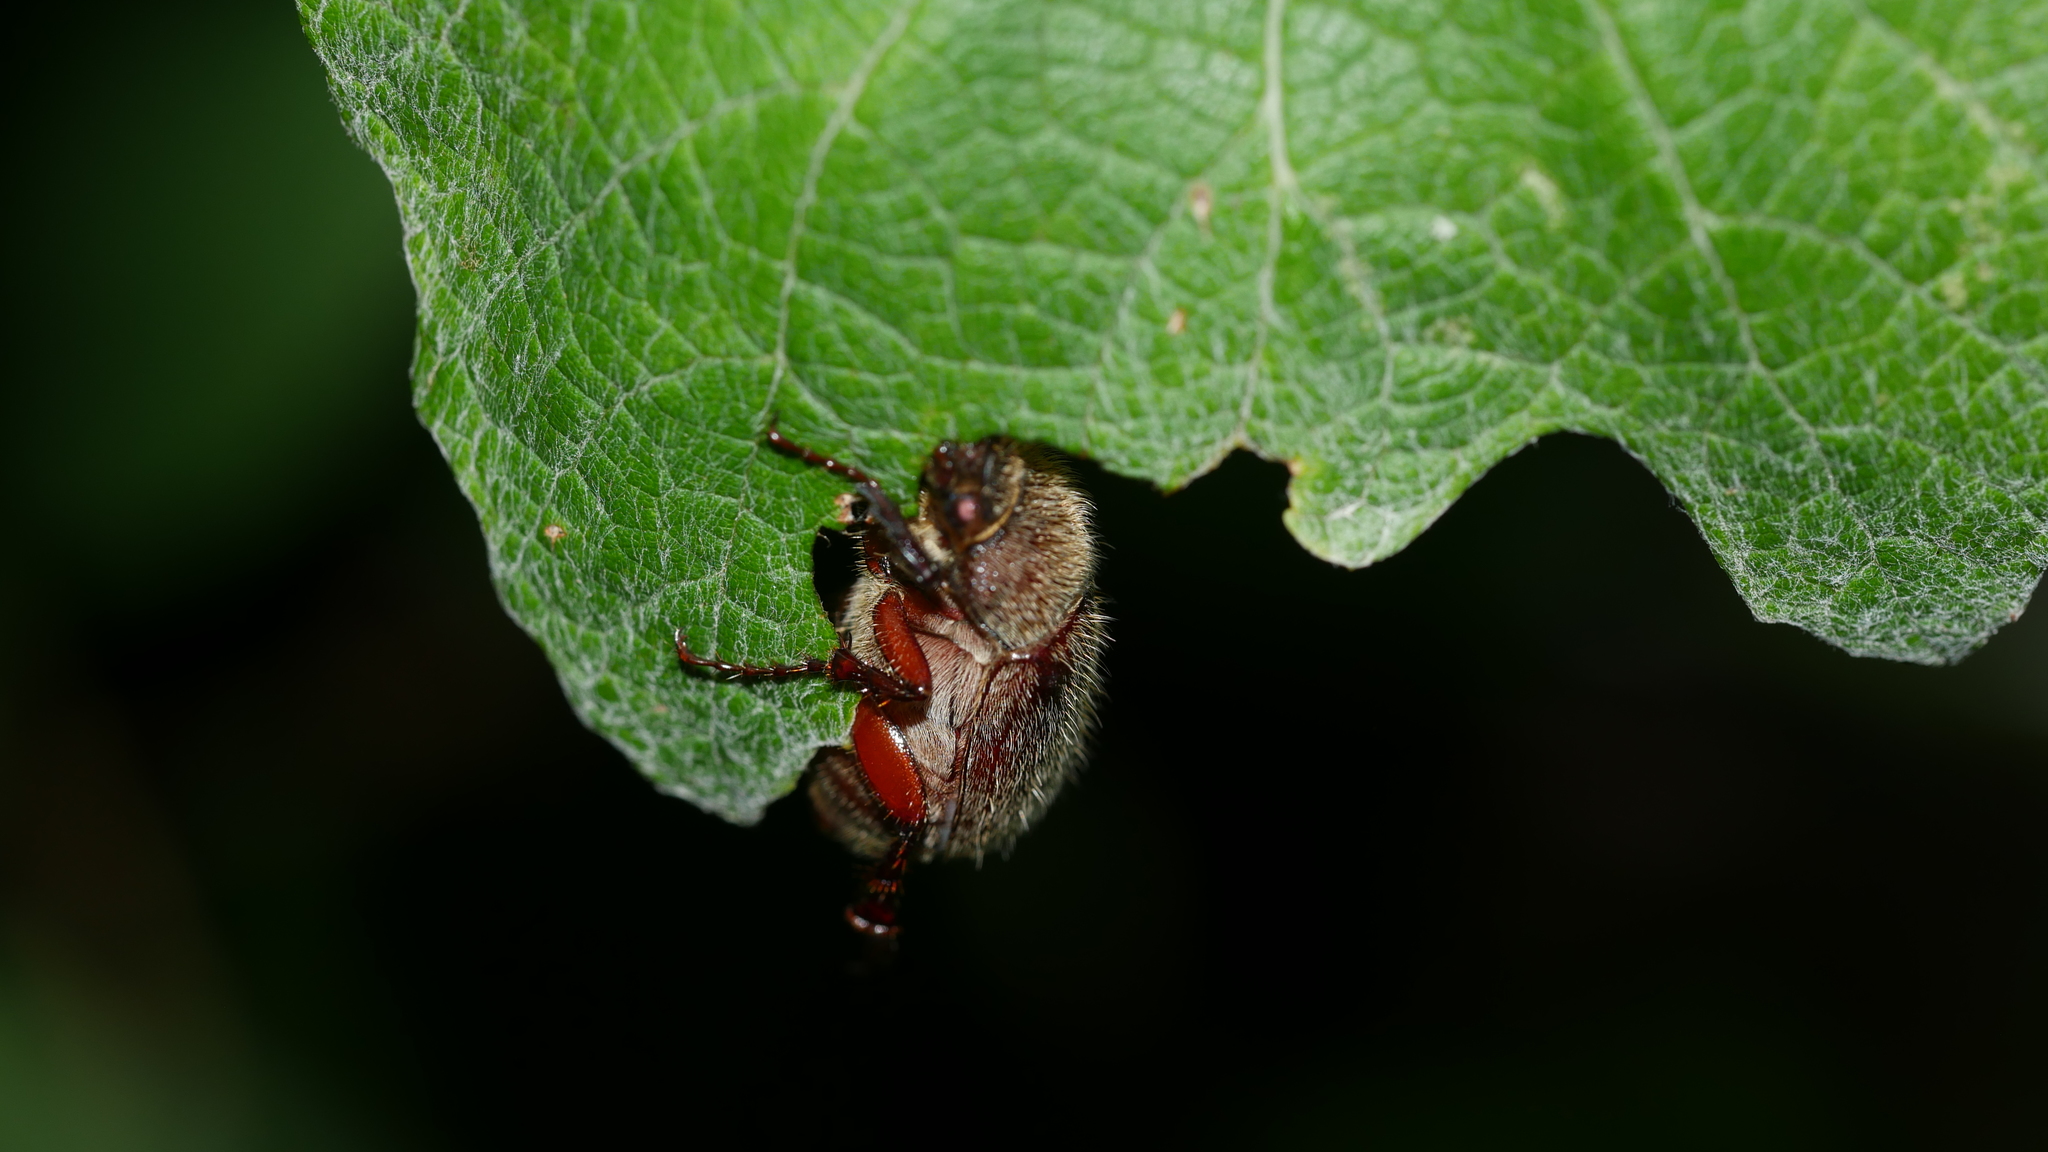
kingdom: Animalia
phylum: Arthropoda
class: Insecta
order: Coleoptera
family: Scarabaeidae
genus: Phyllophaga
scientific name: Phyllophaga
